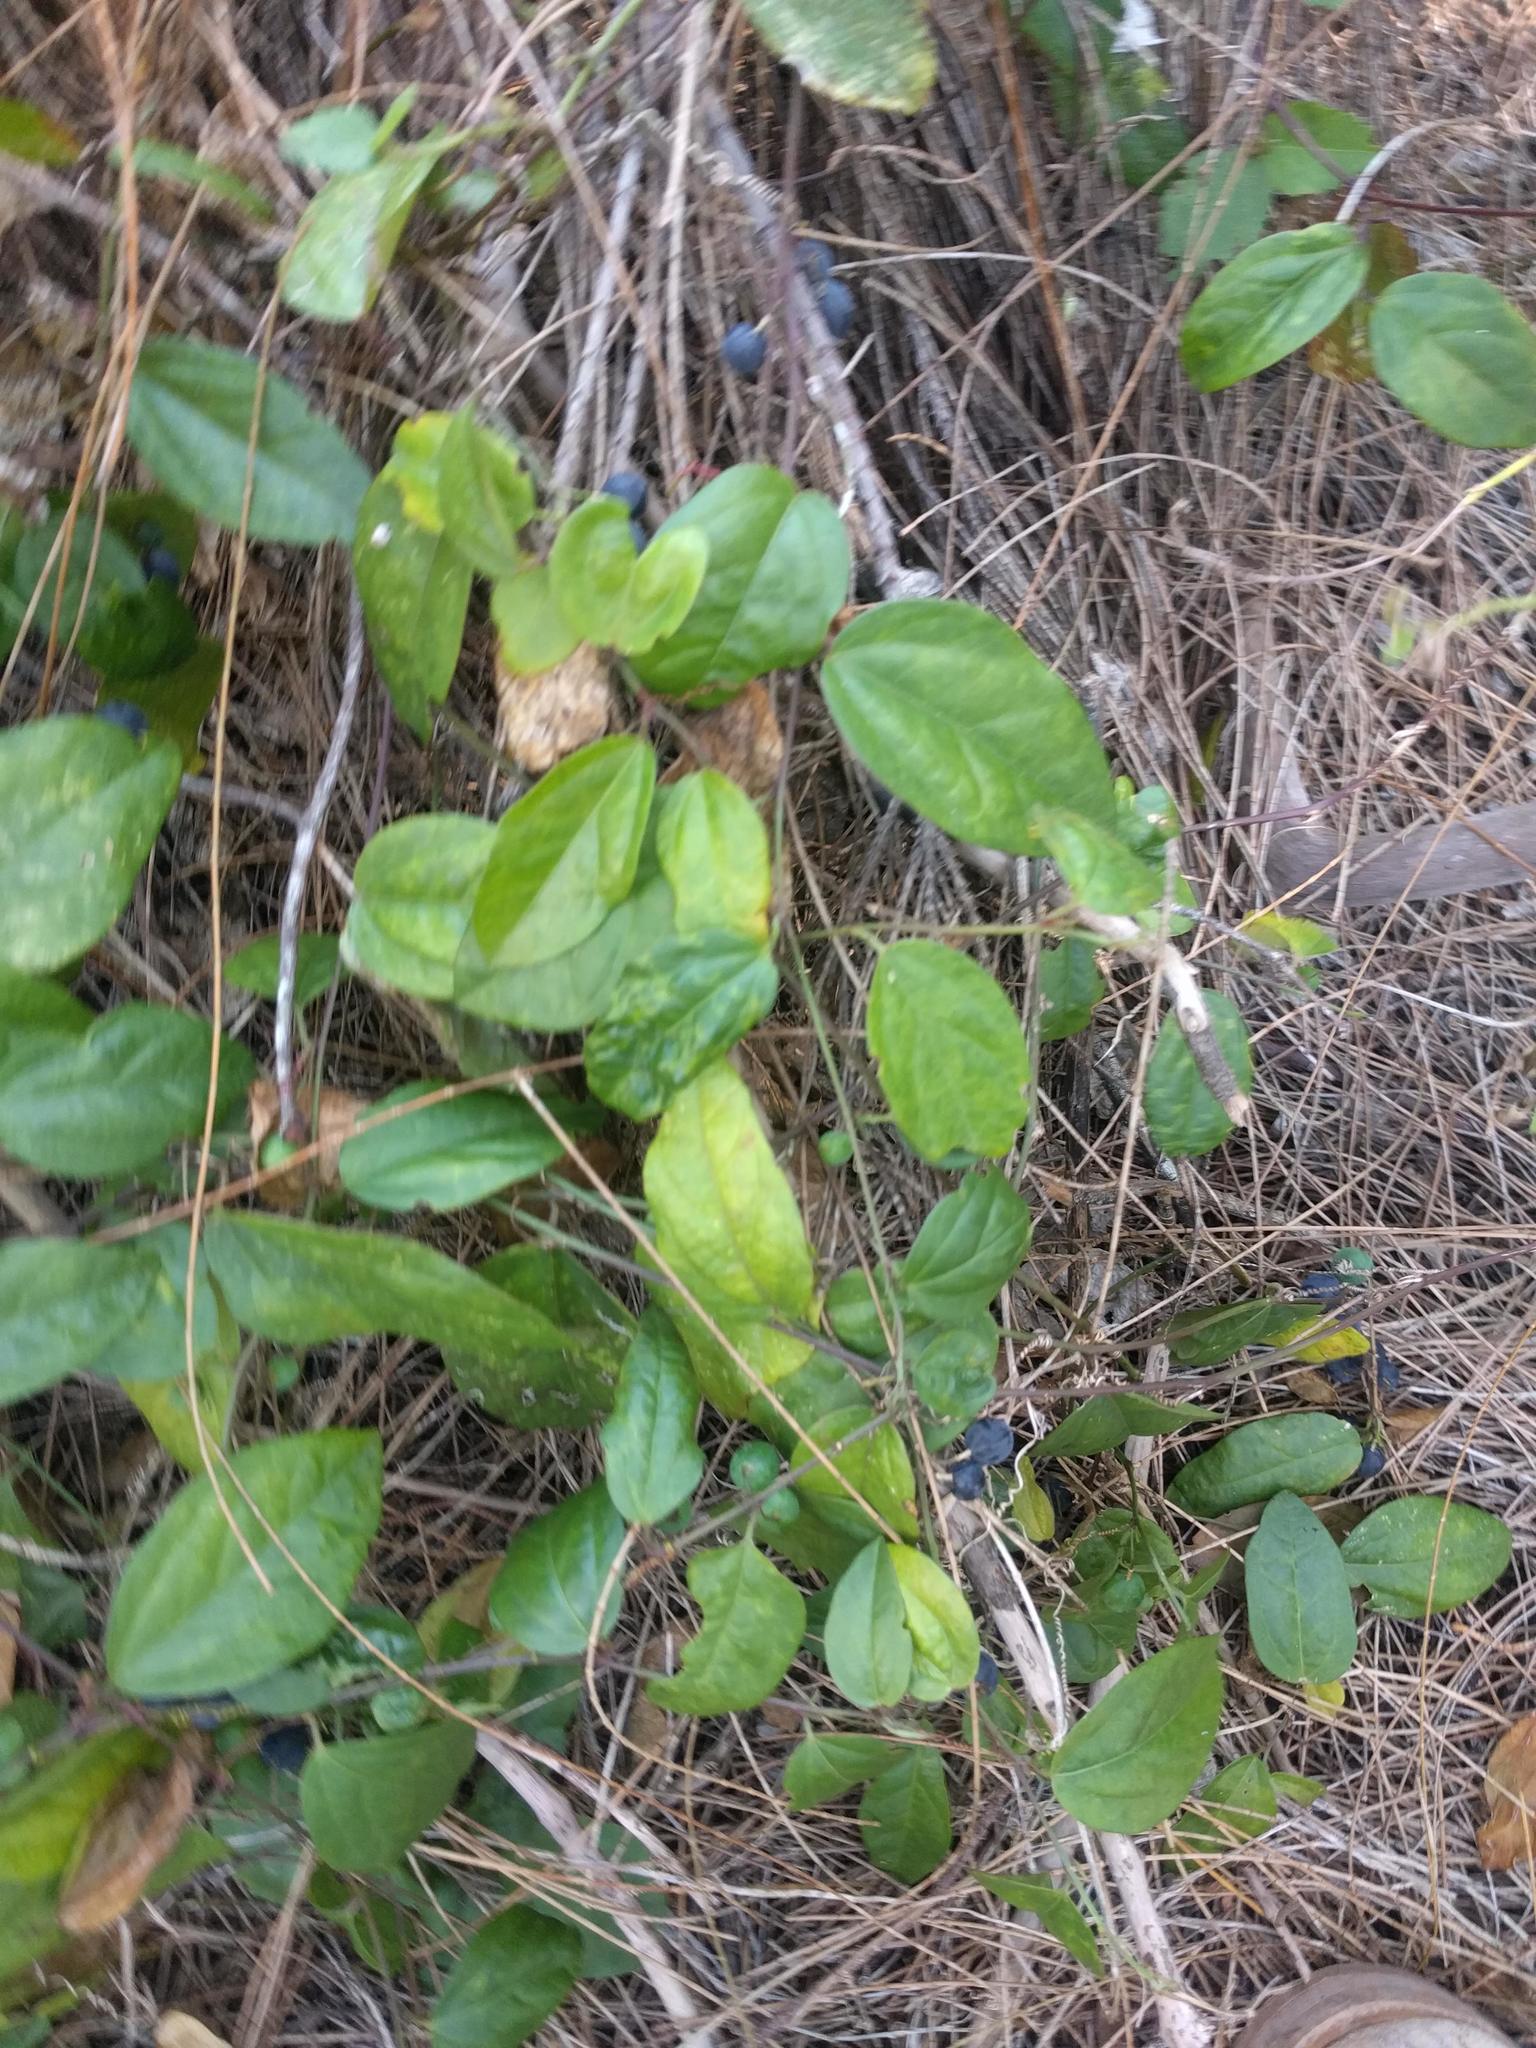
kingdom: Plantae
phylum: Tracheophyta
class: Magnoliopsida
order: Malpighiales
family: Passifloraceae
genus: Passiflora
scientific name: Passiflora pallida
